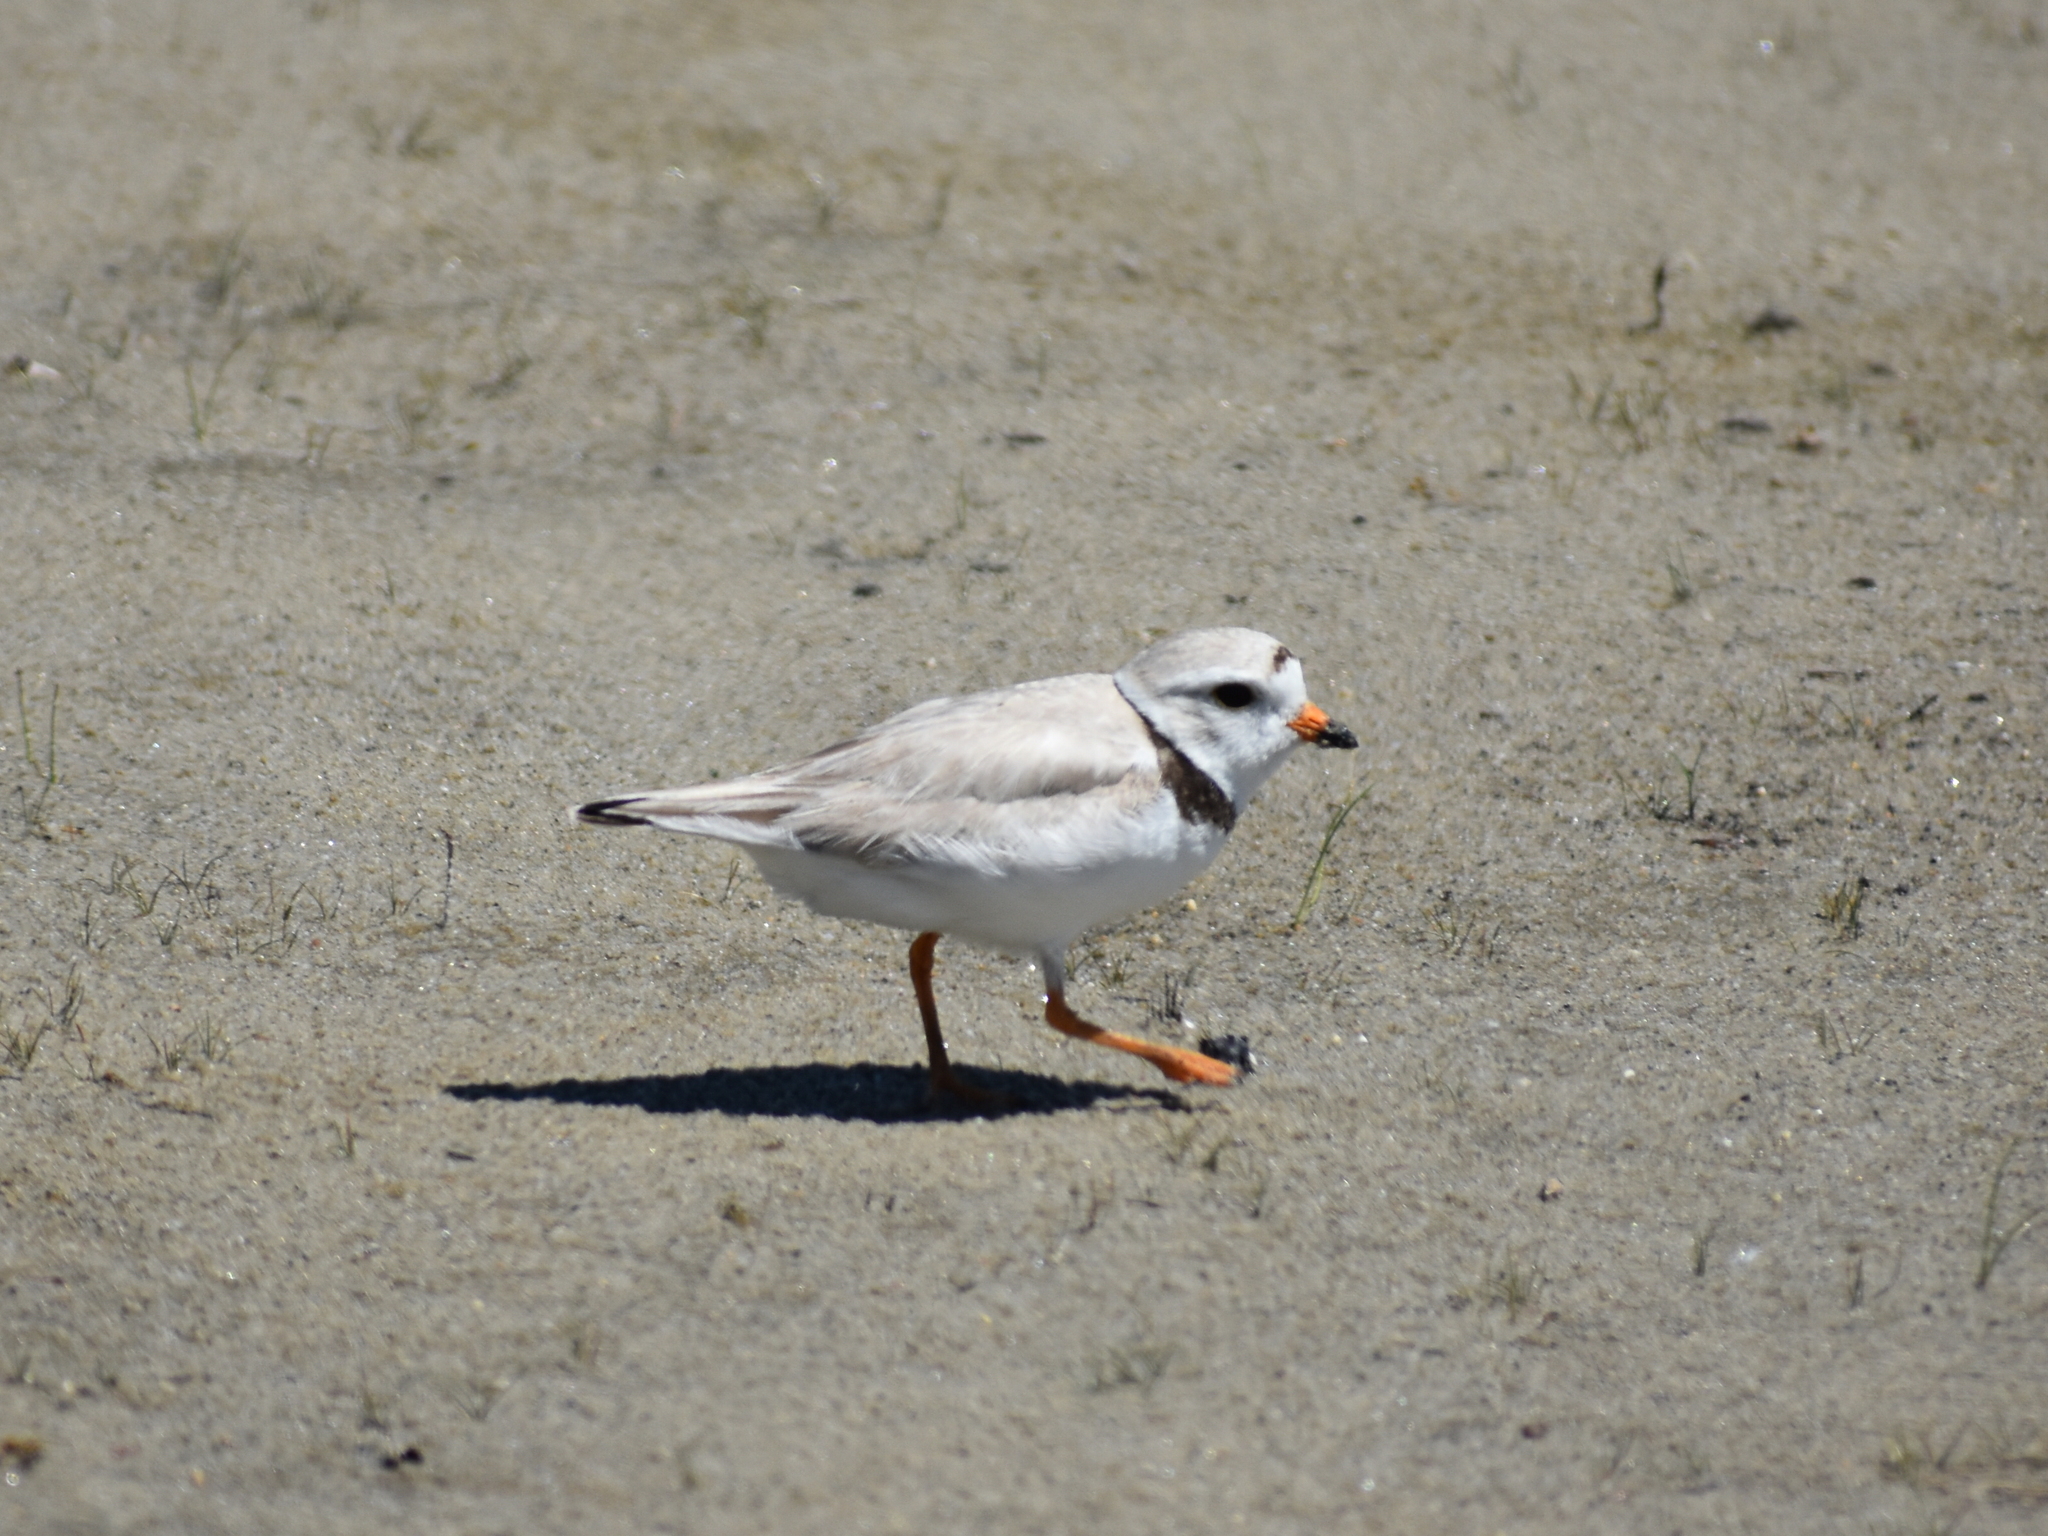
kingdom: Animalia
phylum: Chordata
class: Aves
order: Charadriiformes
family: Charadriidae
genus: Charadrius
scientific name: Charadrius melodus
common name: Piping plover
